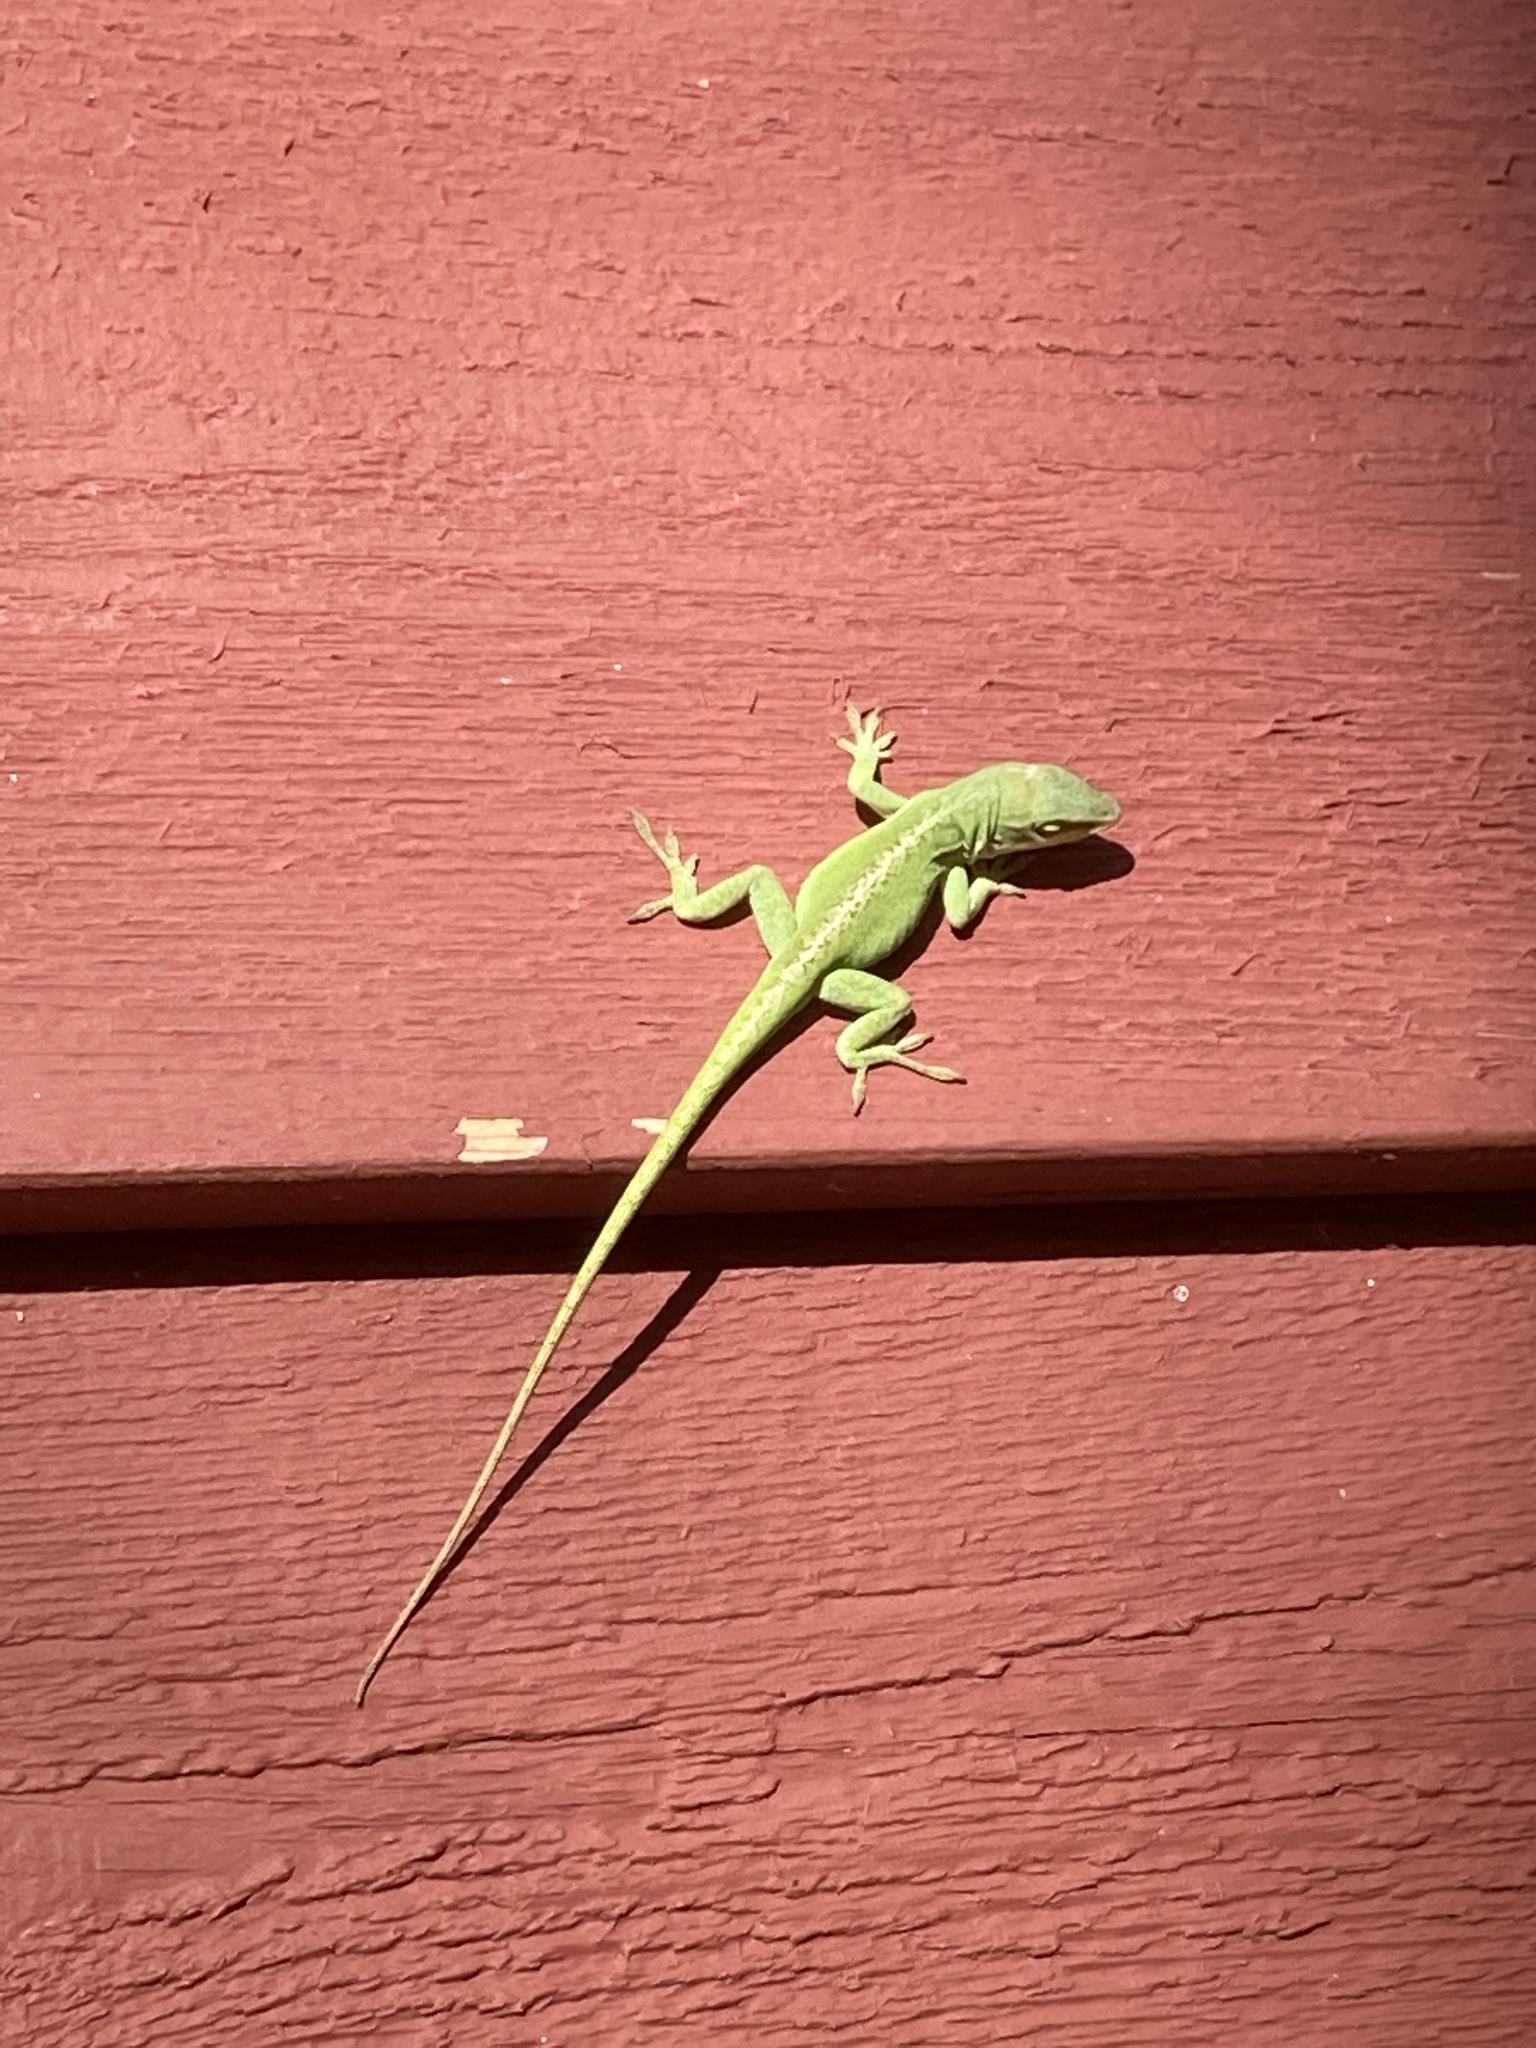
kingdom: Animalia
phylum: Chordata
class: Squamata
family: Dactyloidae
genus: Anolis
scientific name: Anolis carolinensis
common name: Green anole
